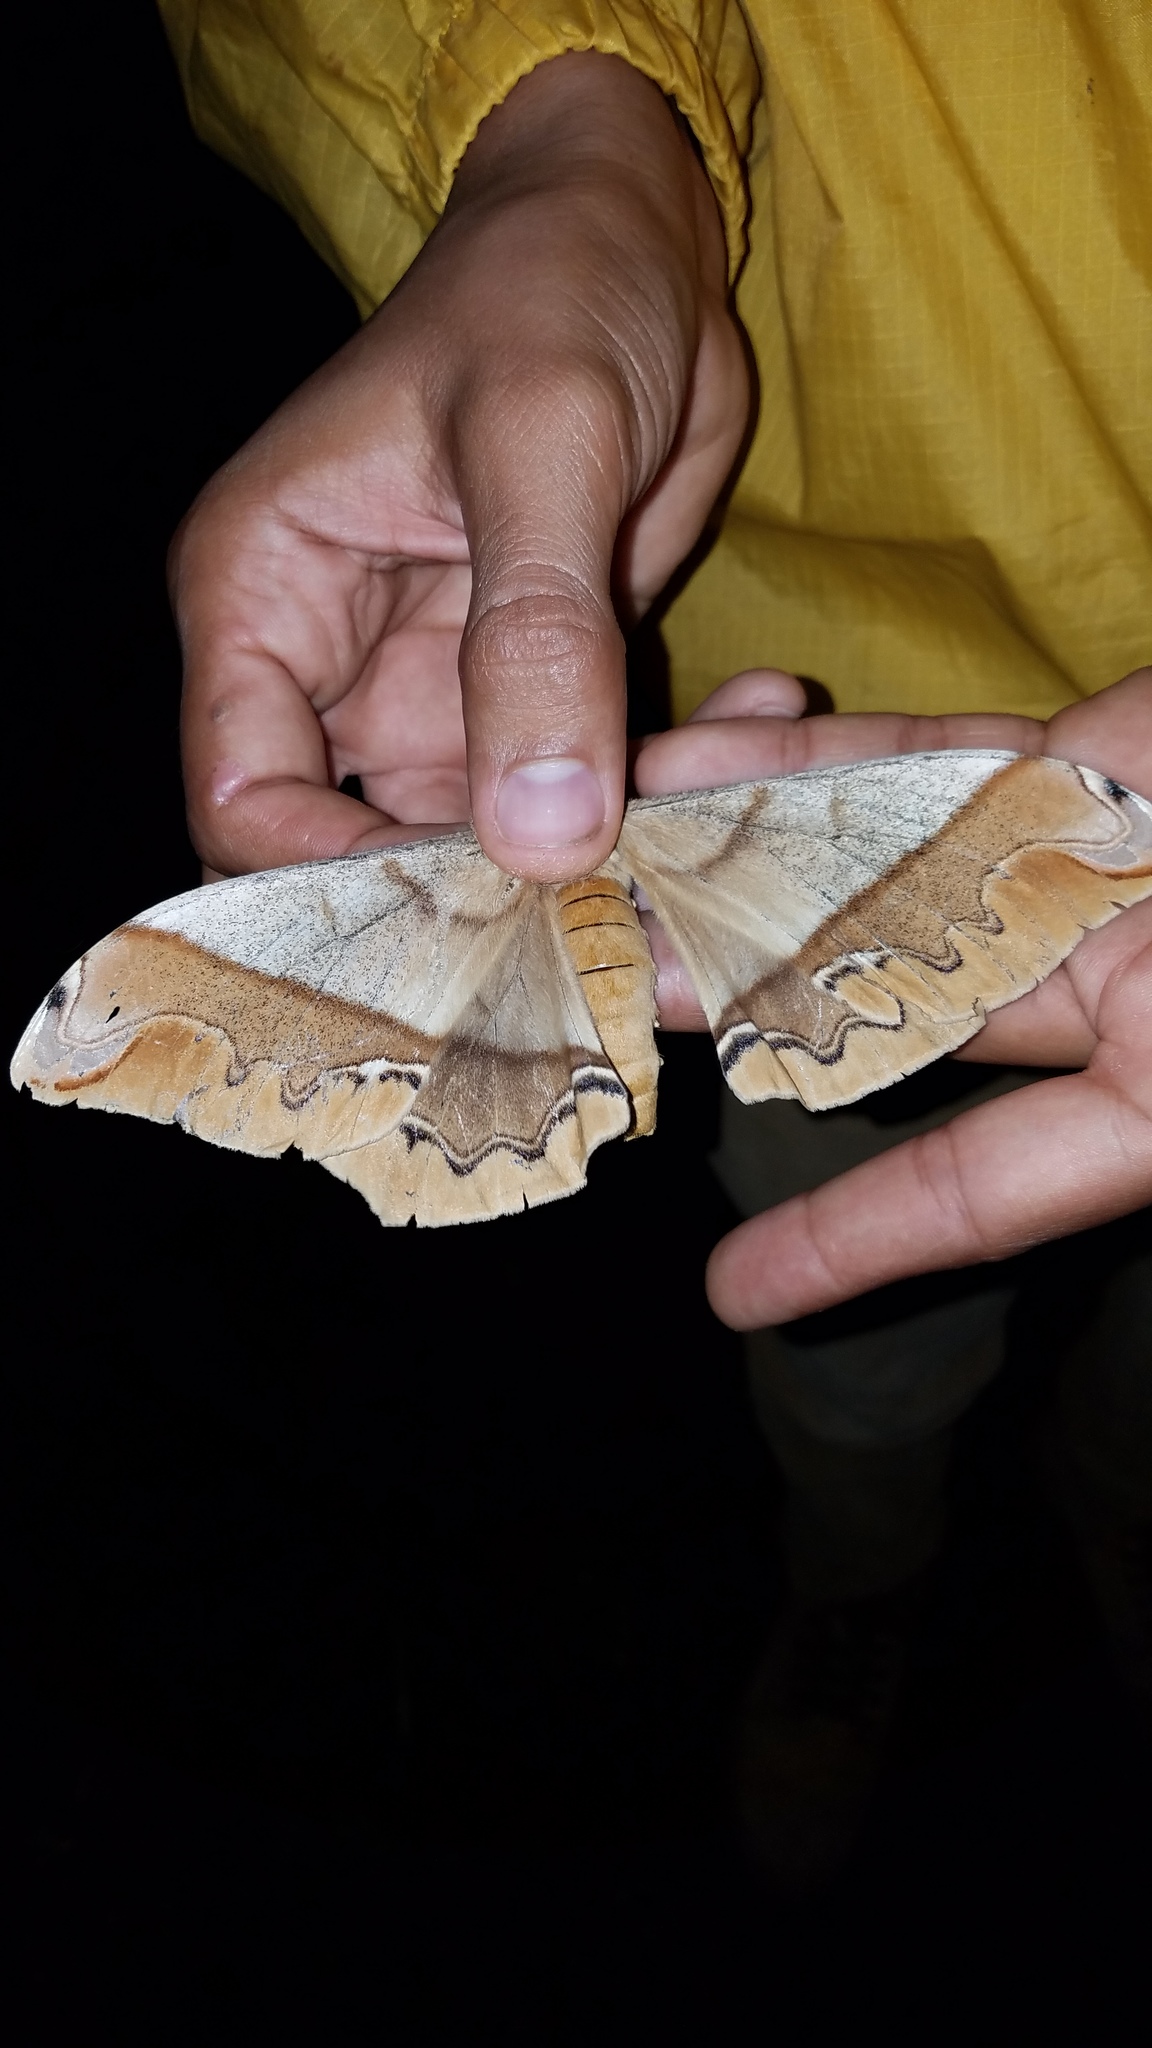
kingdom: Animalia
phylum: Arthropoda
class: Insecta
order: Lepidoptera
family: Saturniidae
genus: Arsenura
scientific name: Arsenura armida
